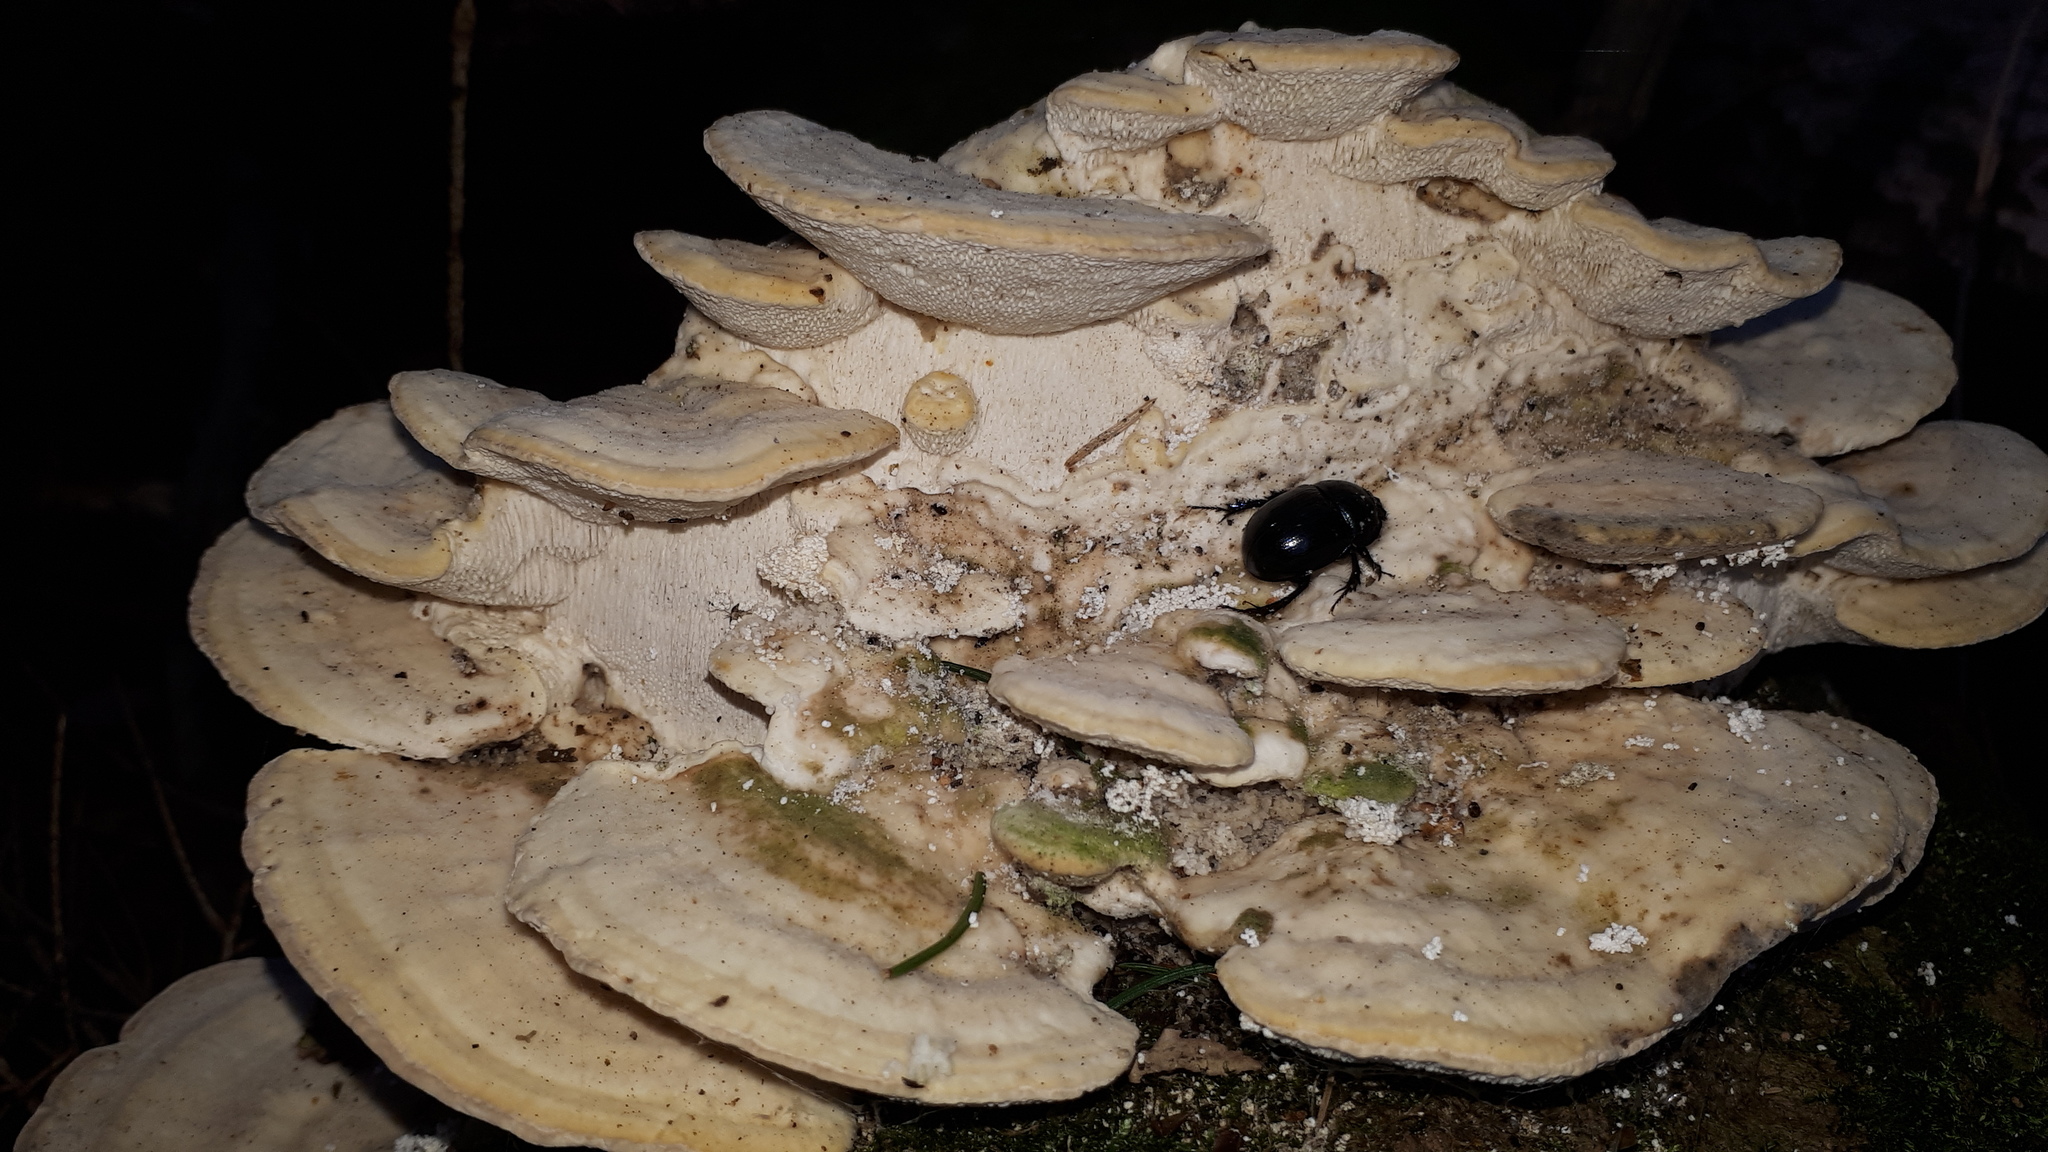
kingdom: Animalia
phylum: Arthropoda
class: Insecta
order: Coleoptera
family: Geotrupidae
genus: Anoplotrupes
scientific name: Anoplotrupes stercorosus
